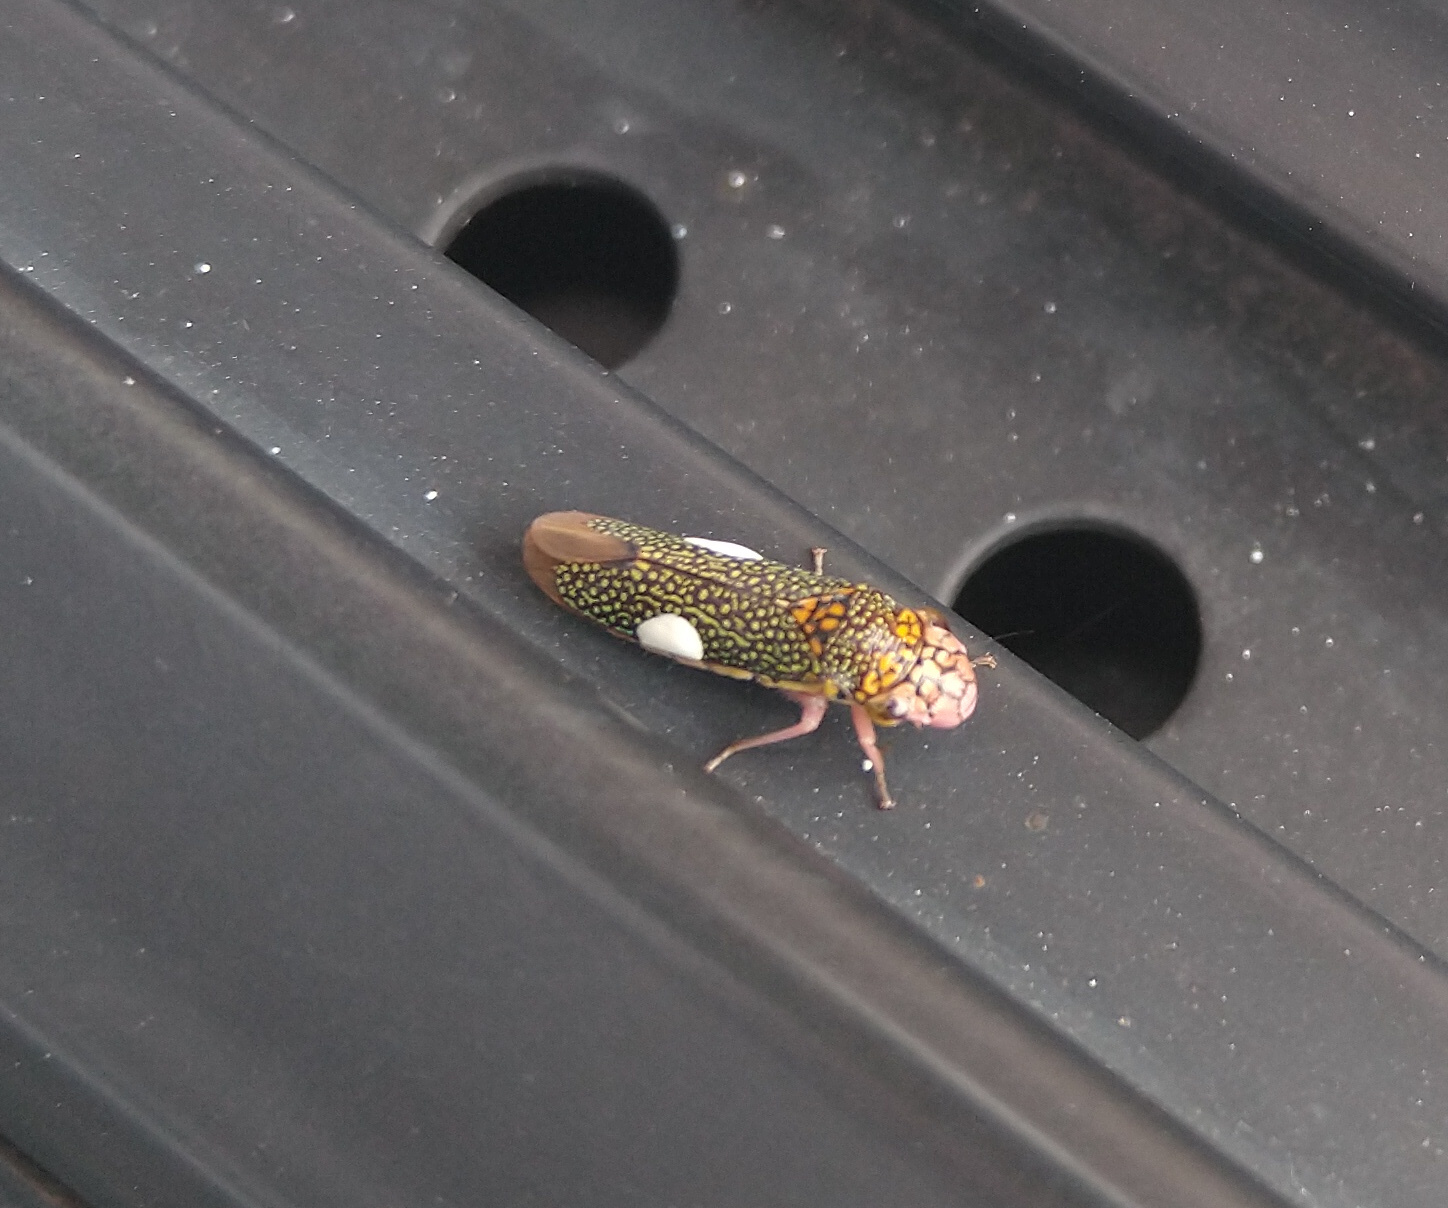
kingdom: Animalia
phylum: Arthropoda
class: Insecta
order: Hemiptera
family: Cicadellidae
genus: Molomea
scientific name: Molomea lineiceps
